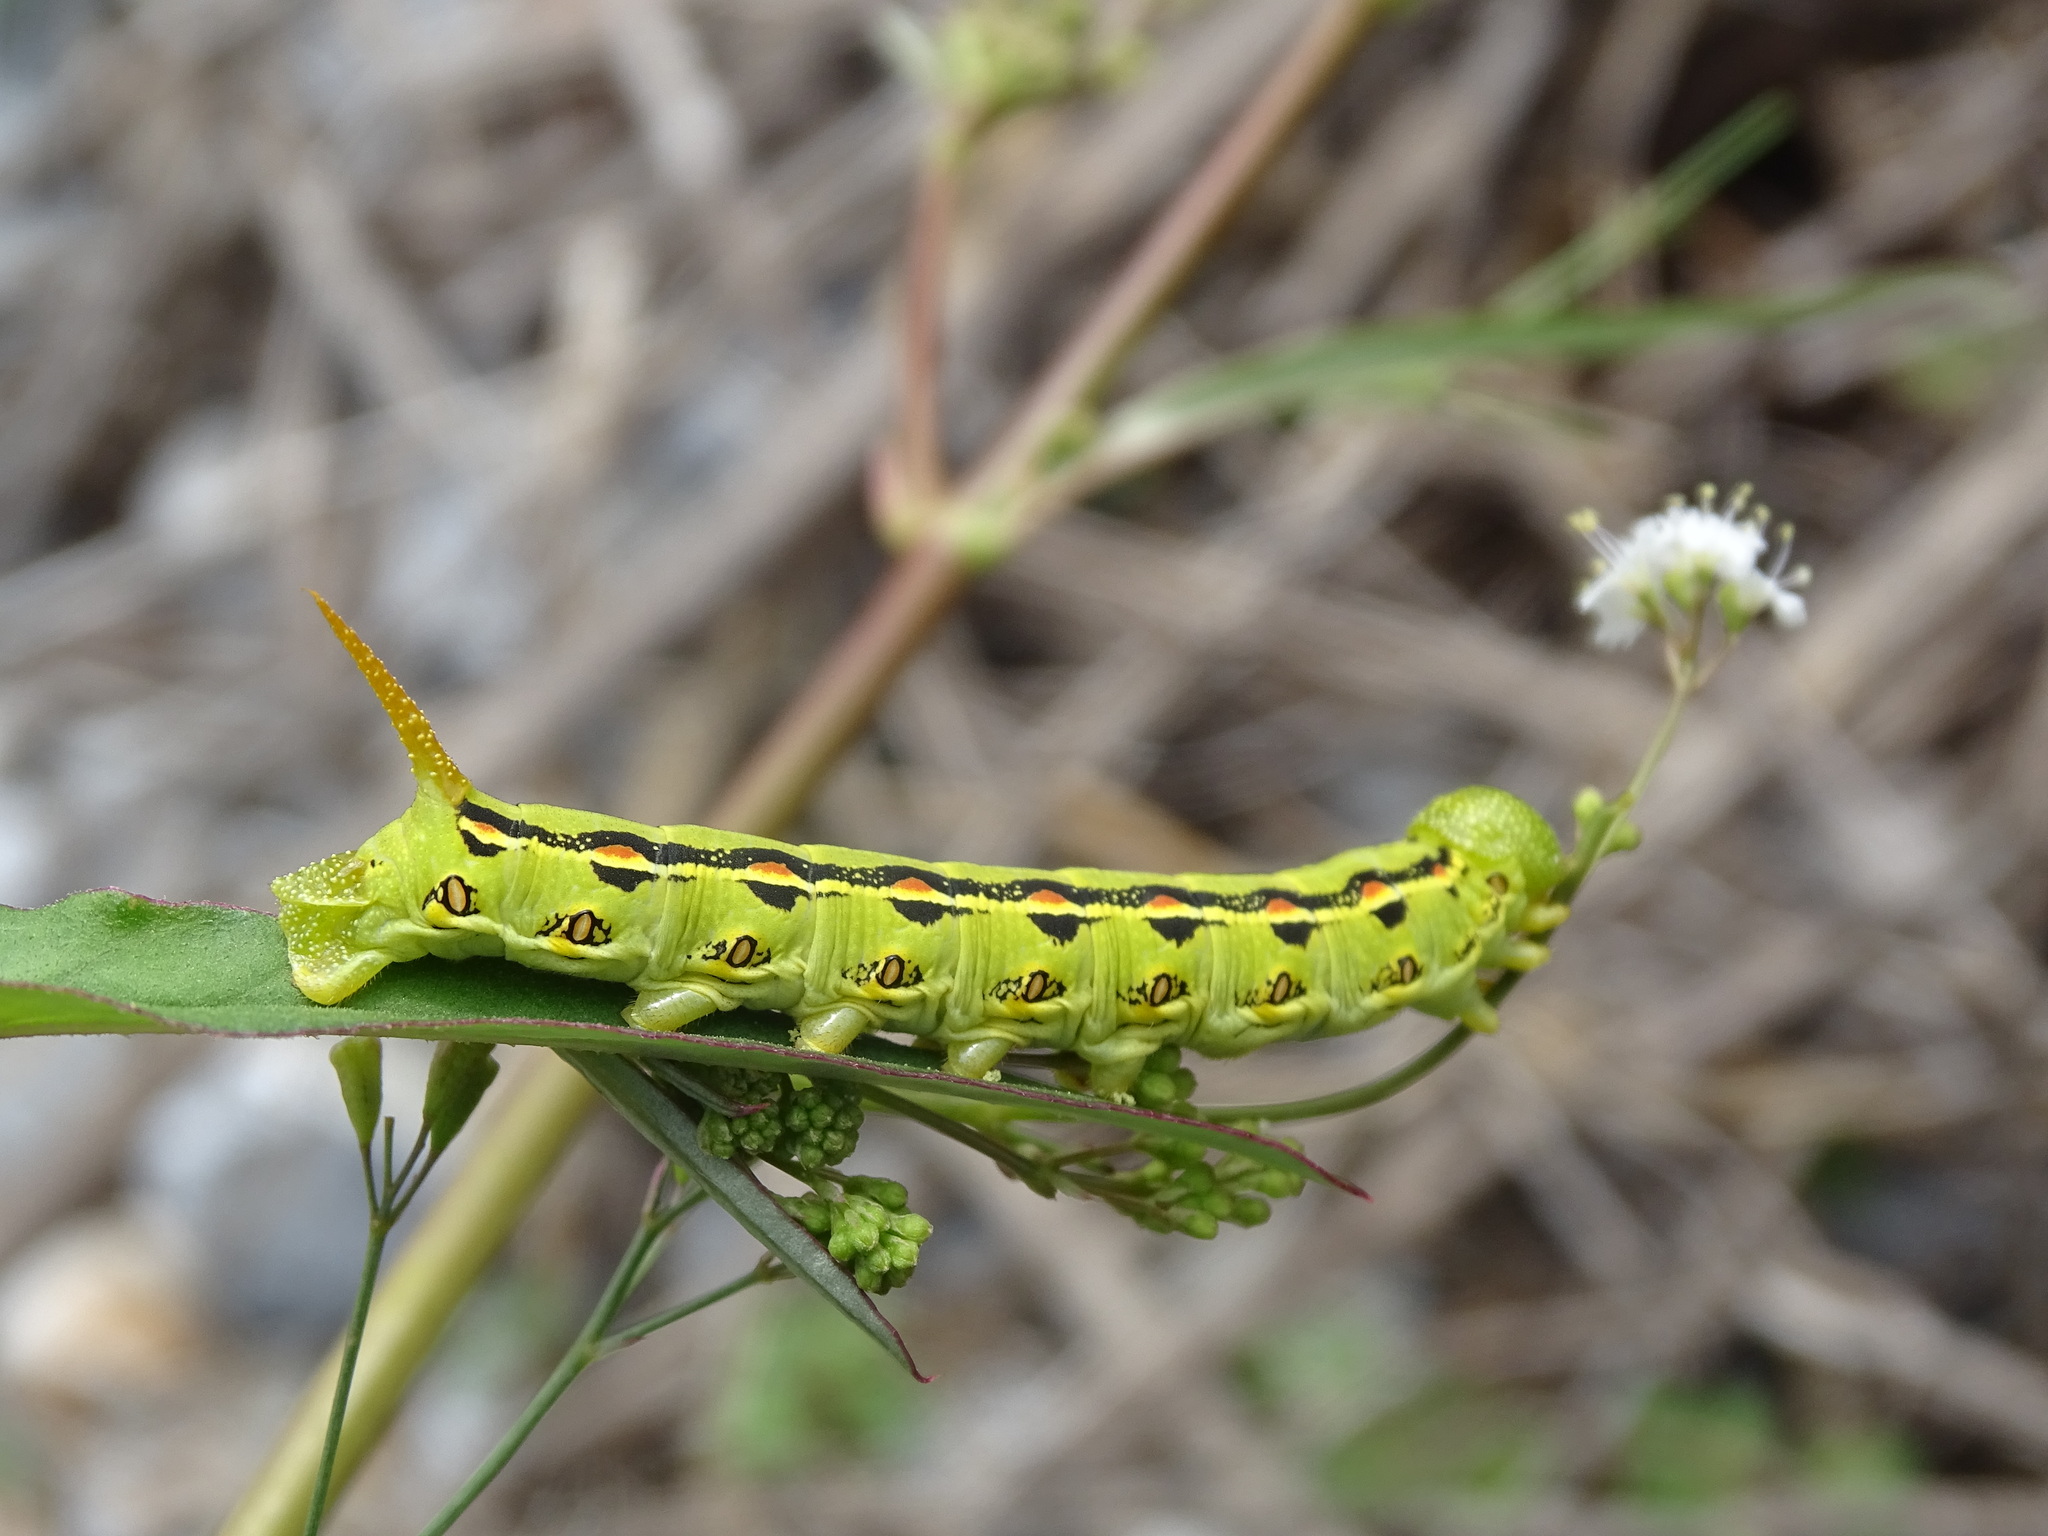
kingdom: Animalia
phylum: Arthropoda
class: Insecta
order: Lepidoptera
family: Sphingidae
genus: Hyles
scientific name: Hyles lineata
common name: White-lined sphinx
